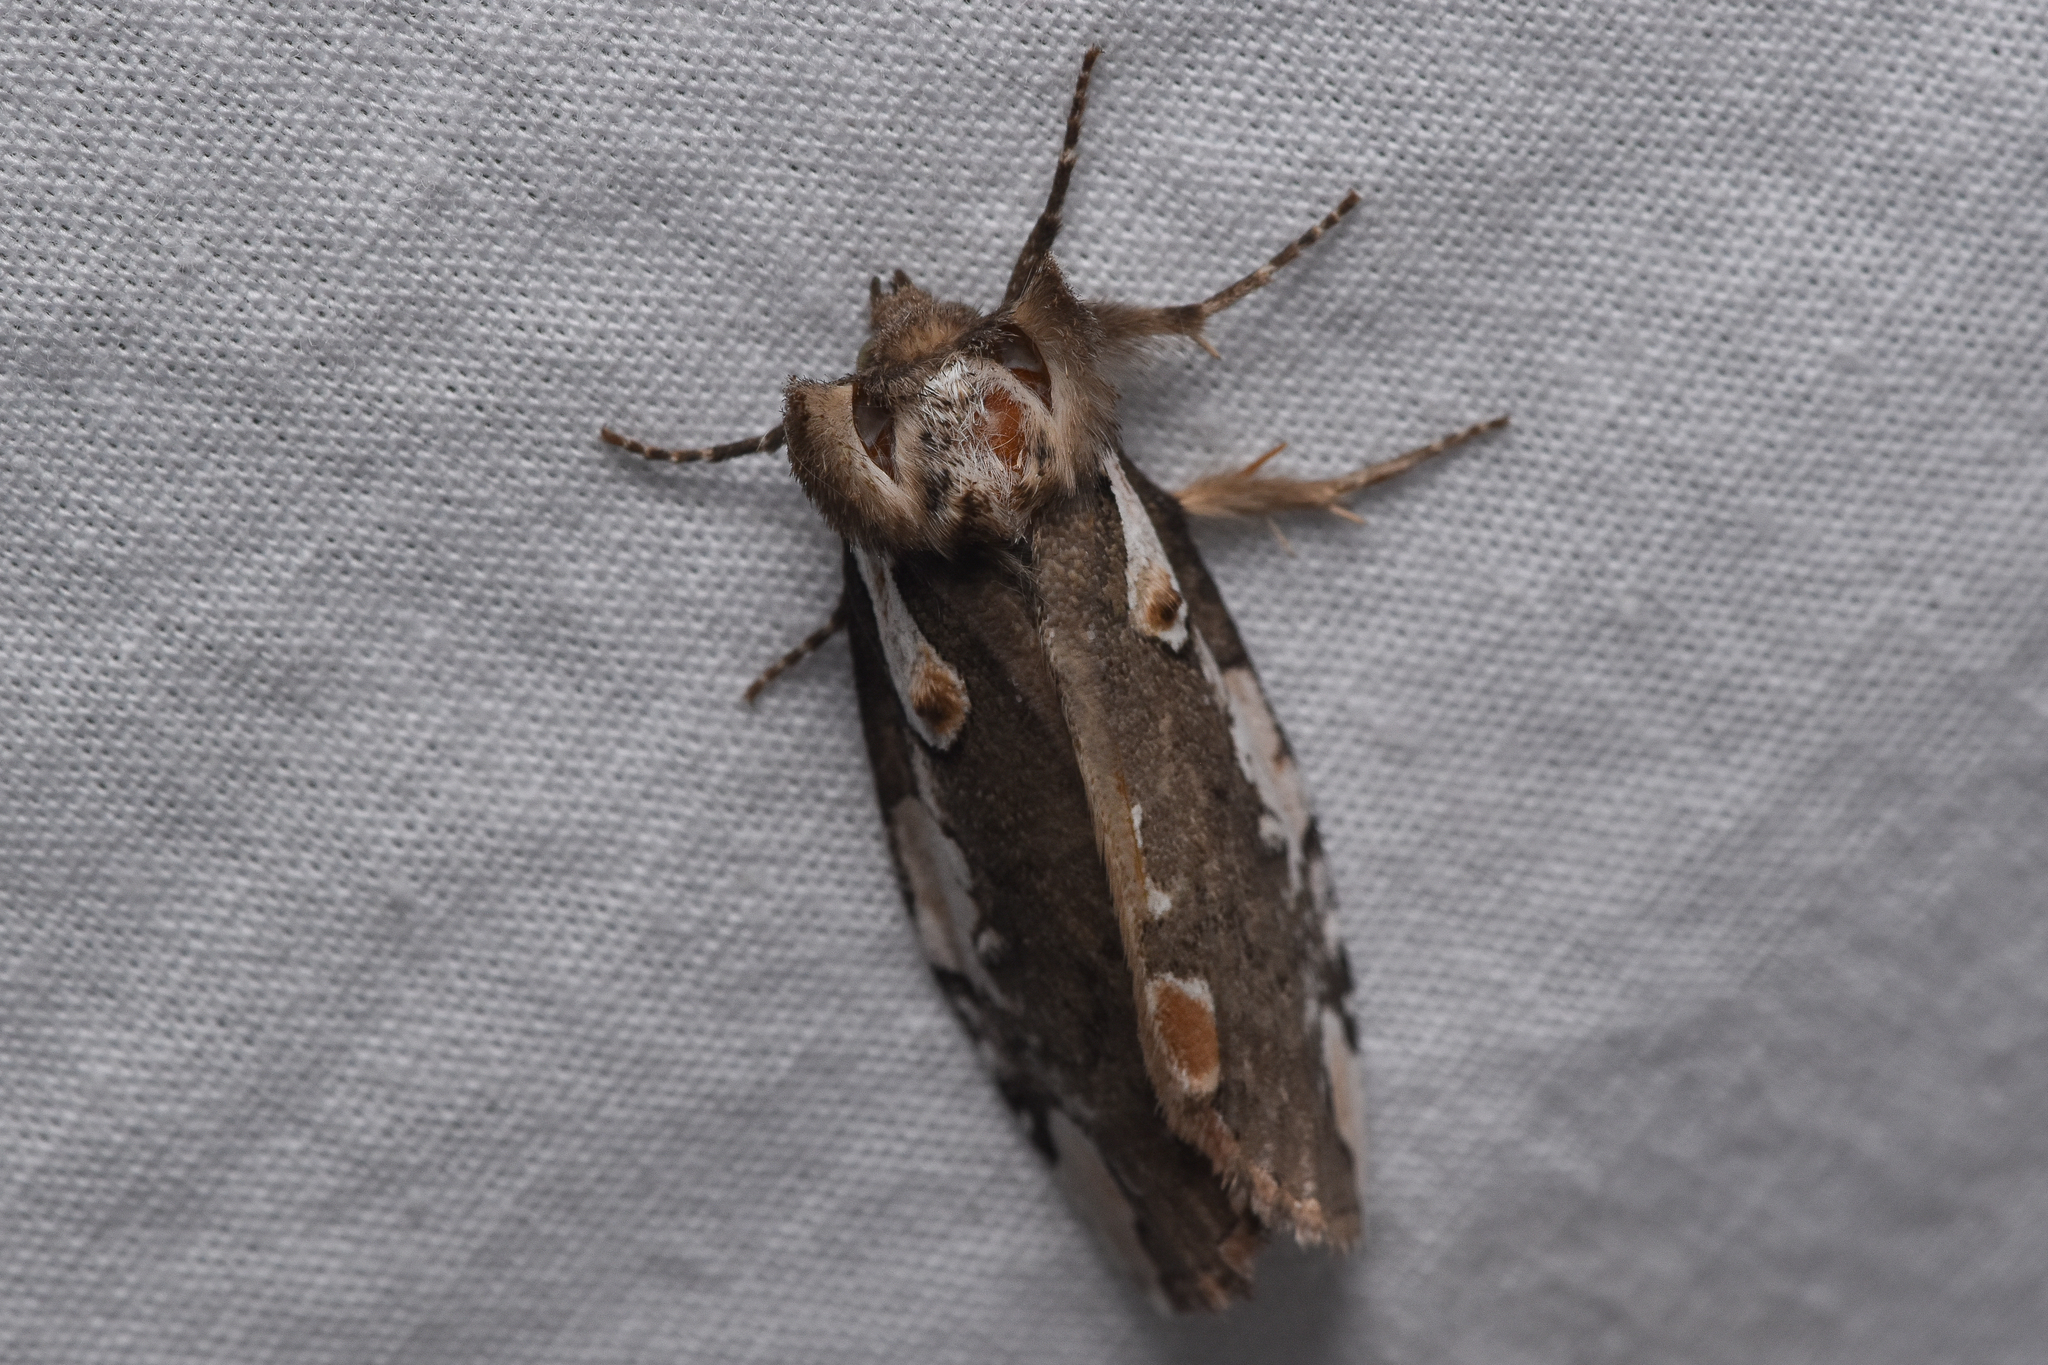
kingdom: Animalia
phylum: Arthropoda
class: Insecta
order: Lepidoptera
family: Drepanidae
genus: Euthyatira
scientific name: Euthyatira pudens
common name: Dogwood thyatirid moth
